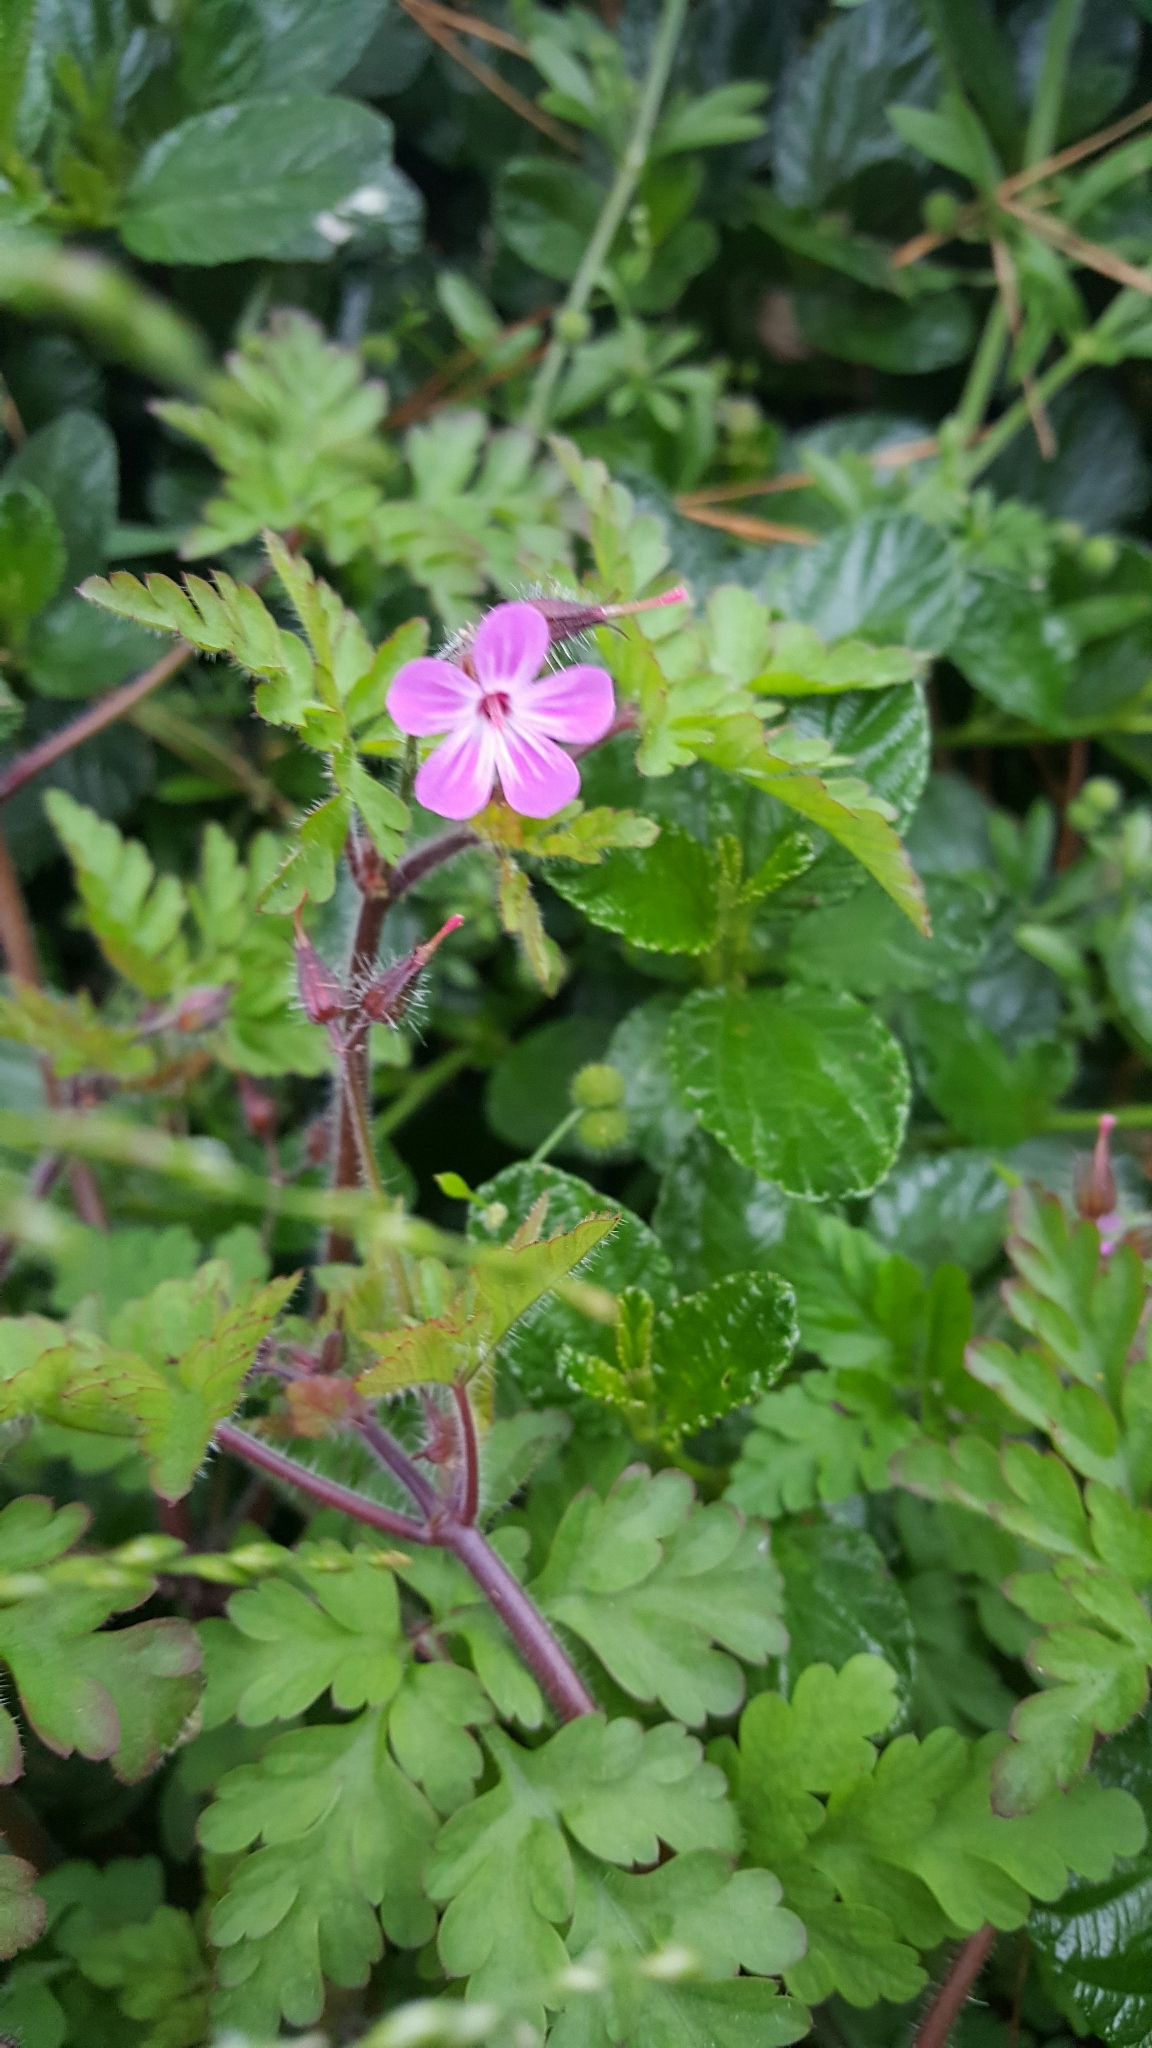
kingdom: Plantae
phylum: Tracheophyta
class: Magnoliopsida
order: Geraniales
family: Geraniaceae
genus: Geranium
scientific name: Geranium robertianum
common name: Herb-robert
